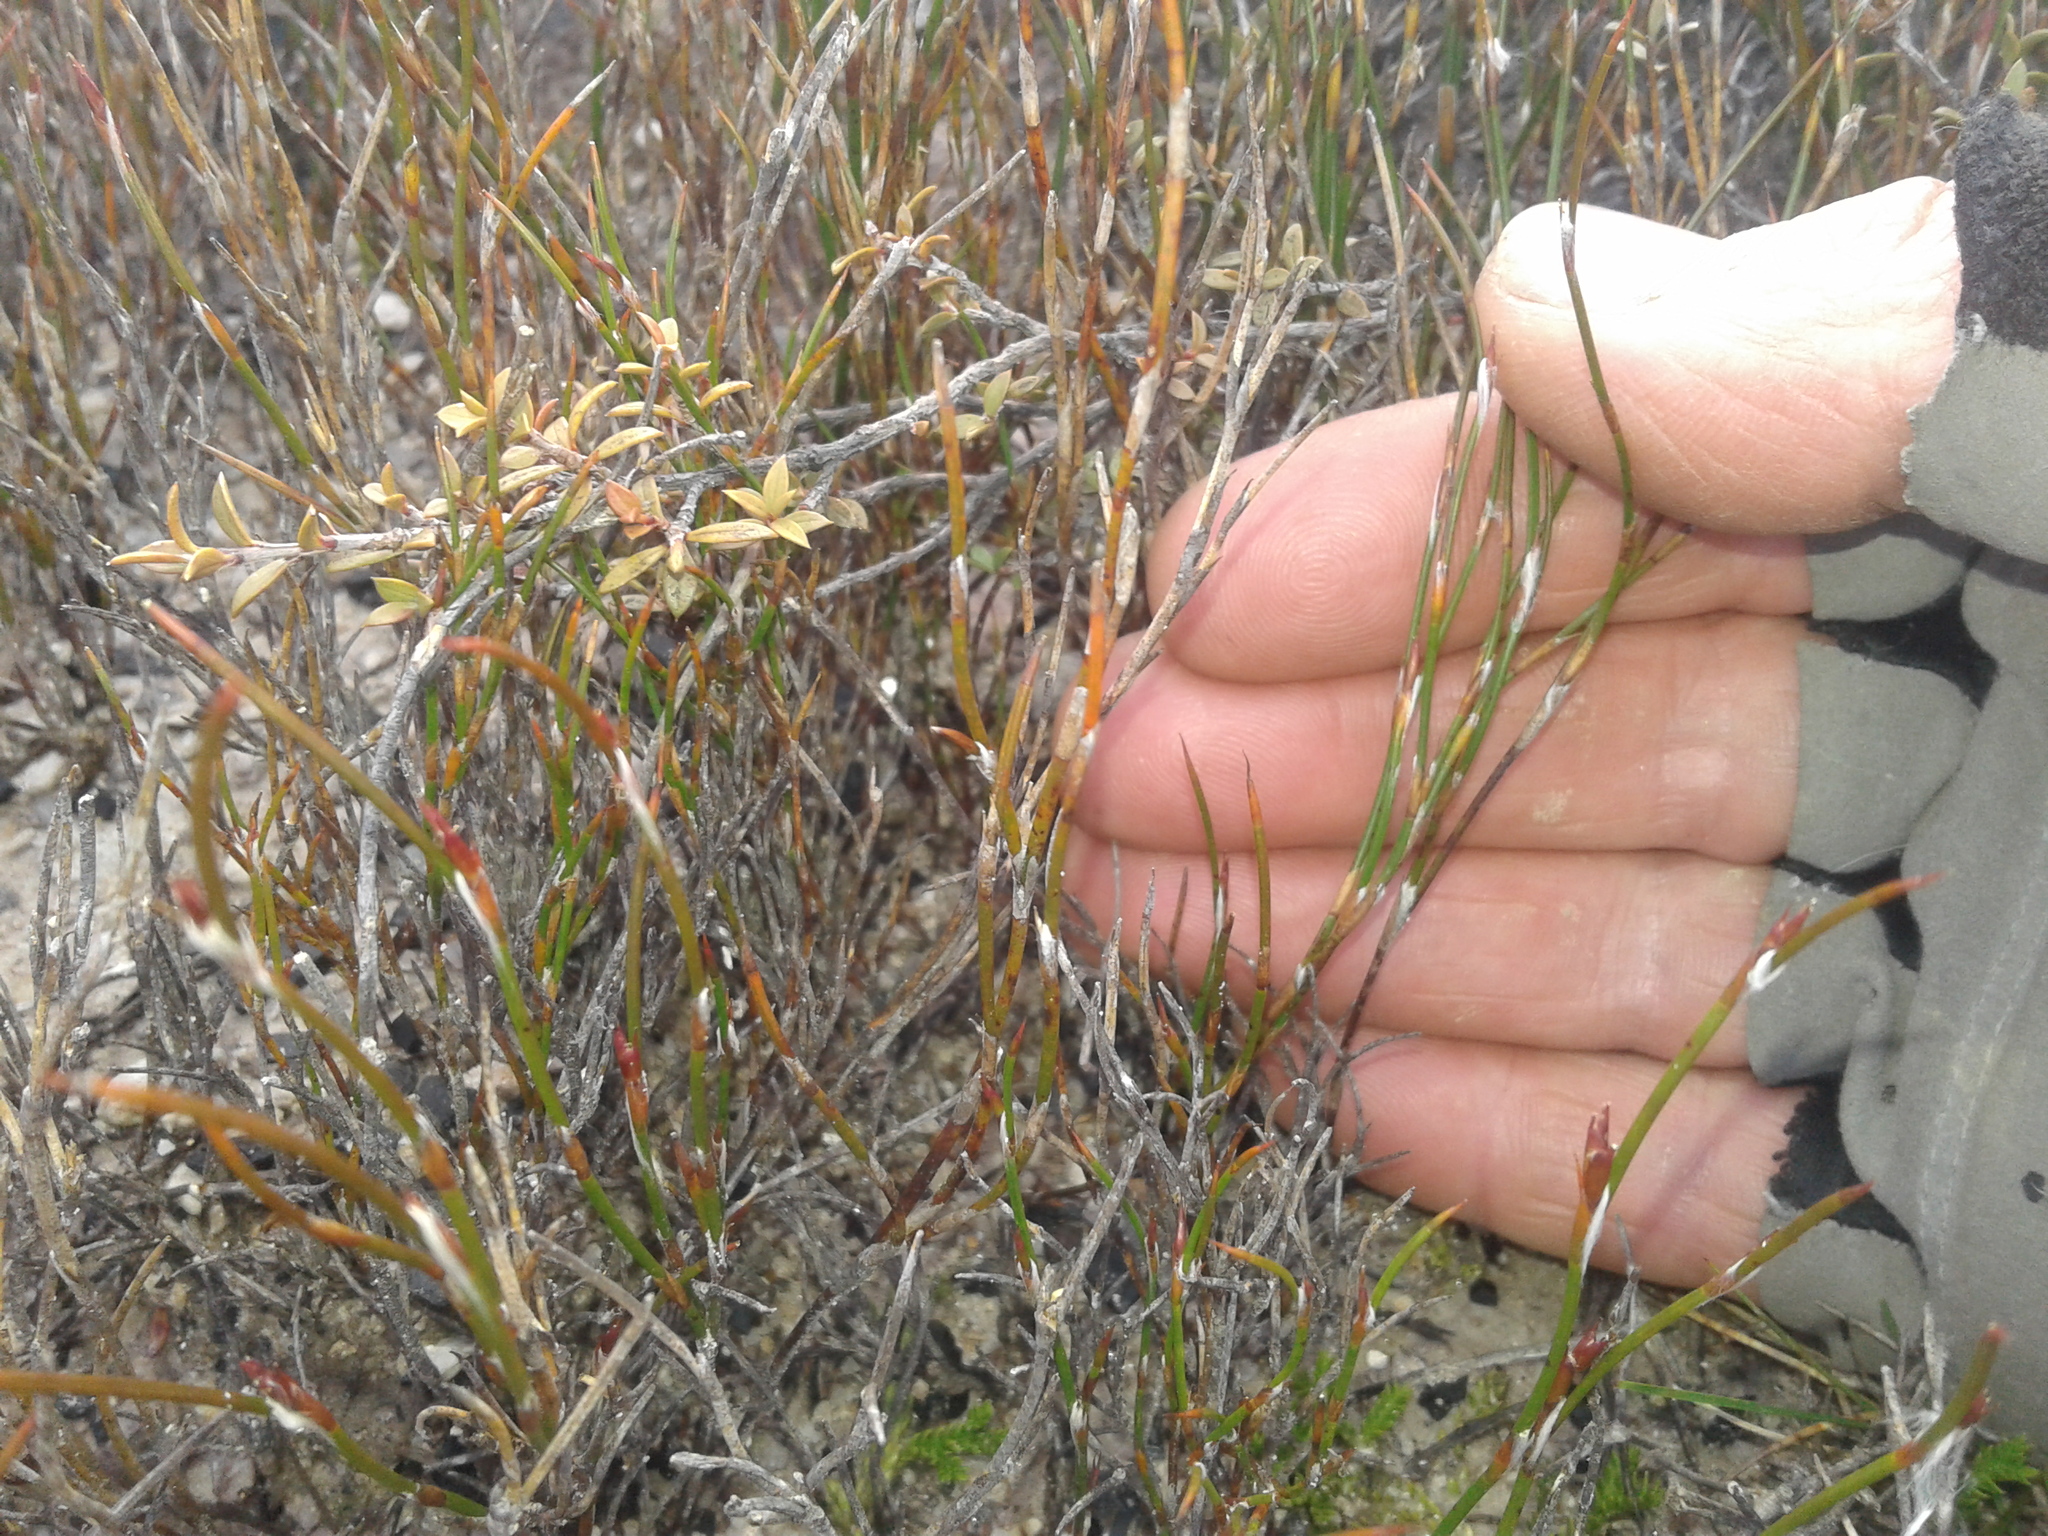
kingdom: Plantae
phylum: Tracheophyta
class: Liliopsida
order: Poales
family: Restionaceae
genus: Empodisma
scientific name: Empodisma minus
